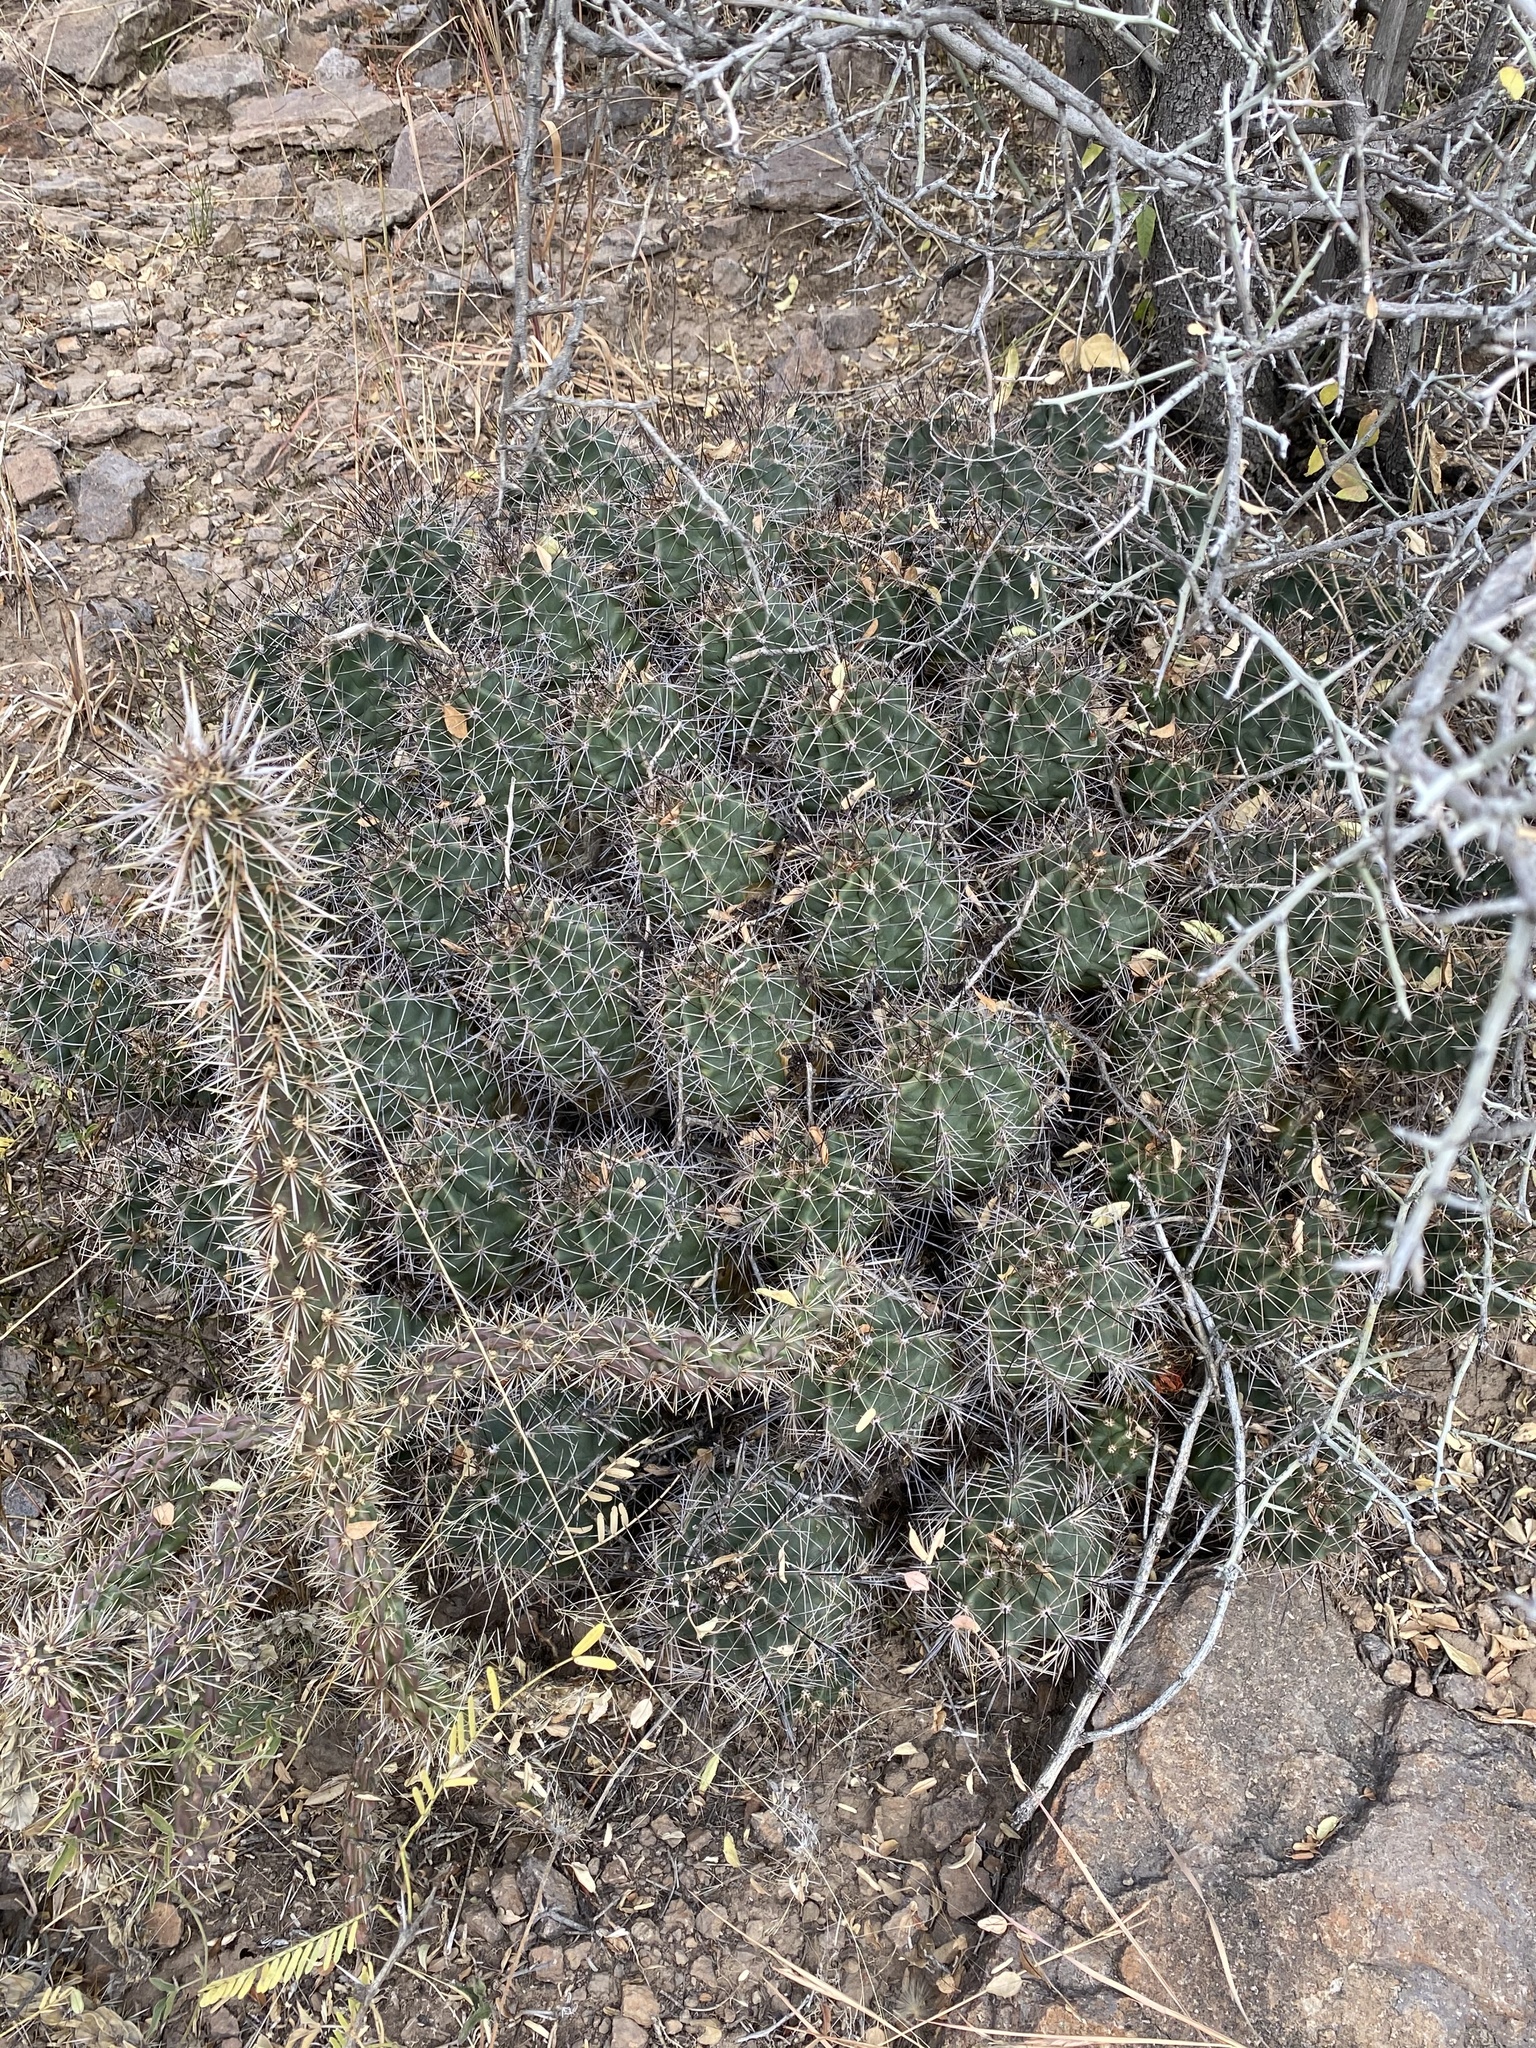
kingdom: Plantae
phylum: Tracheophyta
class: Magnoliopsida
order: Caryophyllales
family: Cactaceae
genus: Echinocereus
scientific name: Echinocereus coccineus
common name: Scarlet hedgehog cactus
